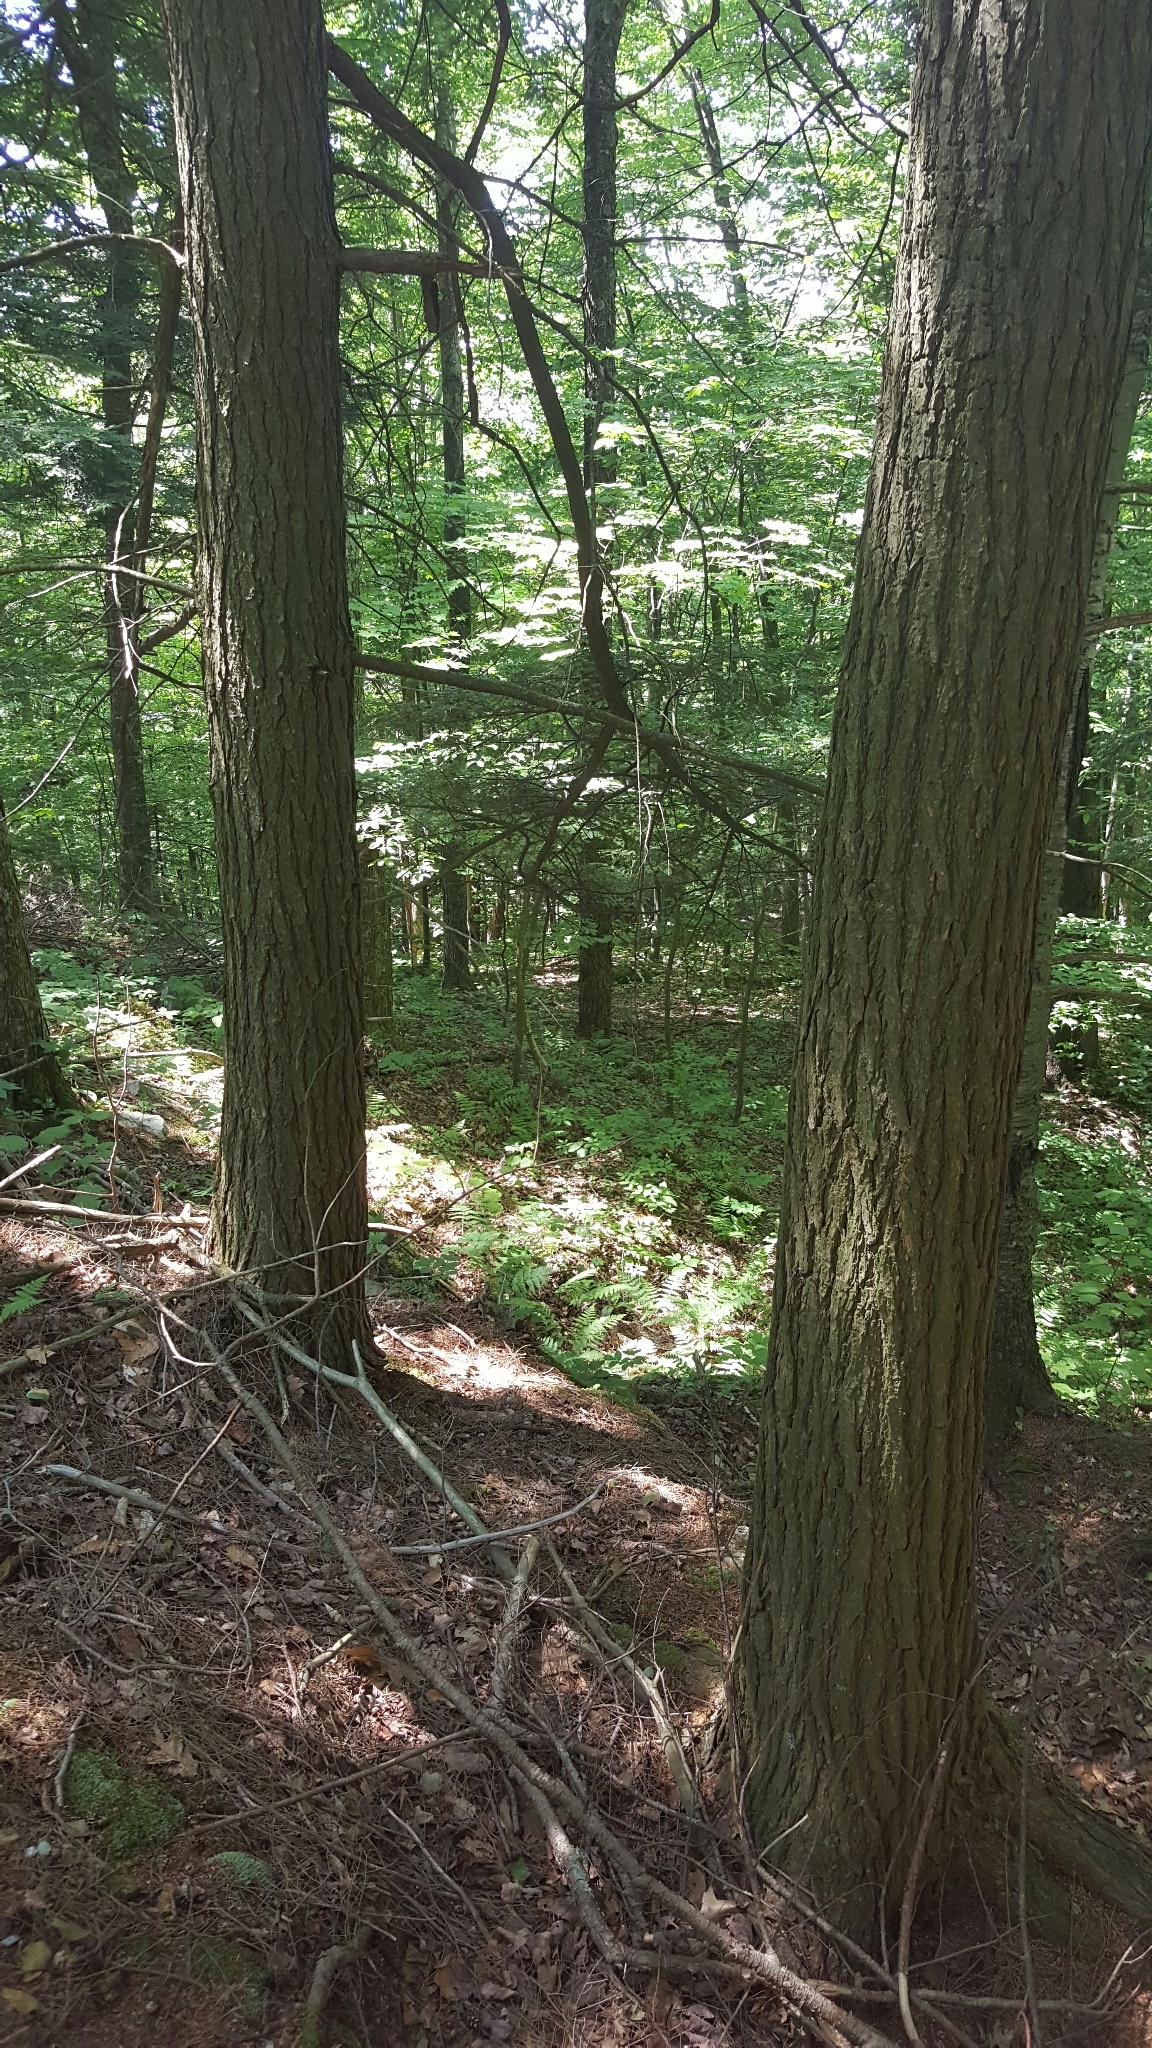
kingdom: Plantae
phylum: Tracheophyta
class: Pinopsida
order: Pinales
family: Pinaceae
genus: Tsuga
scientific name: Tsuga canadensis
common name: Eastern hemlock
